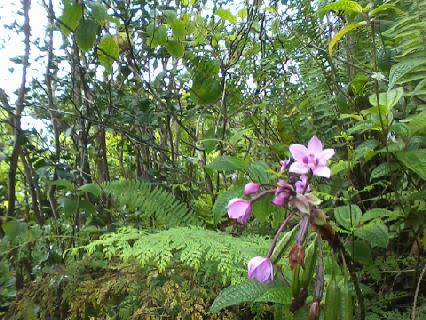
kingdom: Plantae
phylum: Tracheophyta
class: Liliopsida
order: Asparagales
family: Orchidaceae
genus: Spathoglottis
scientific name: Spathoglottis plicata
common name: Philippine ground orchid
